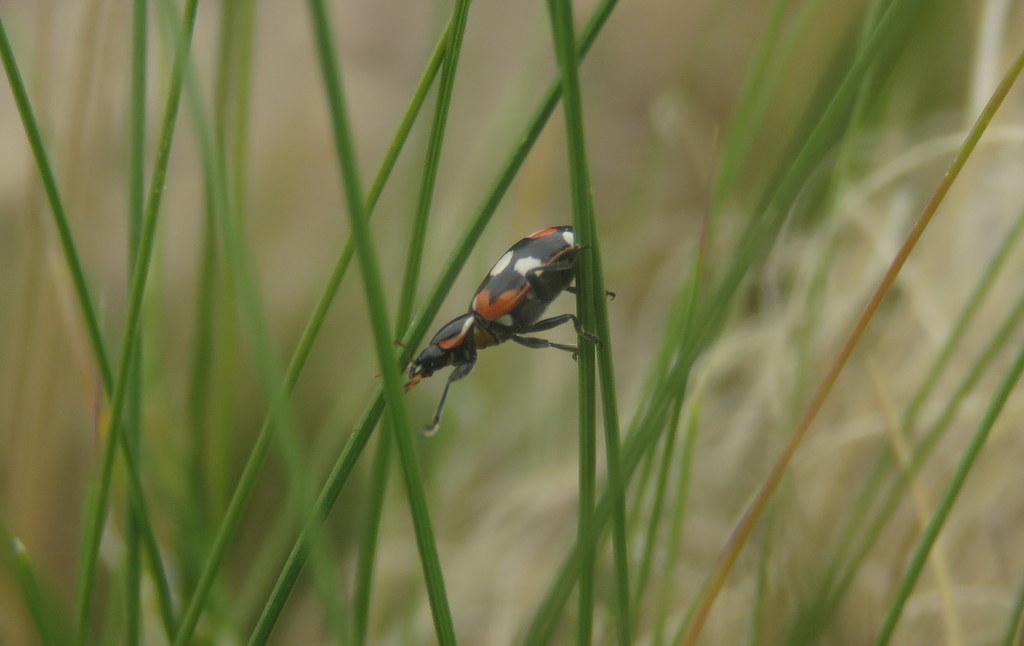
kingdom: Animalia
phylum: Arthropoda
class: Insecta
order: Coleoptera
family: Coccinellidae
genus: Eriopis
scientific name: Eriopis connexa
